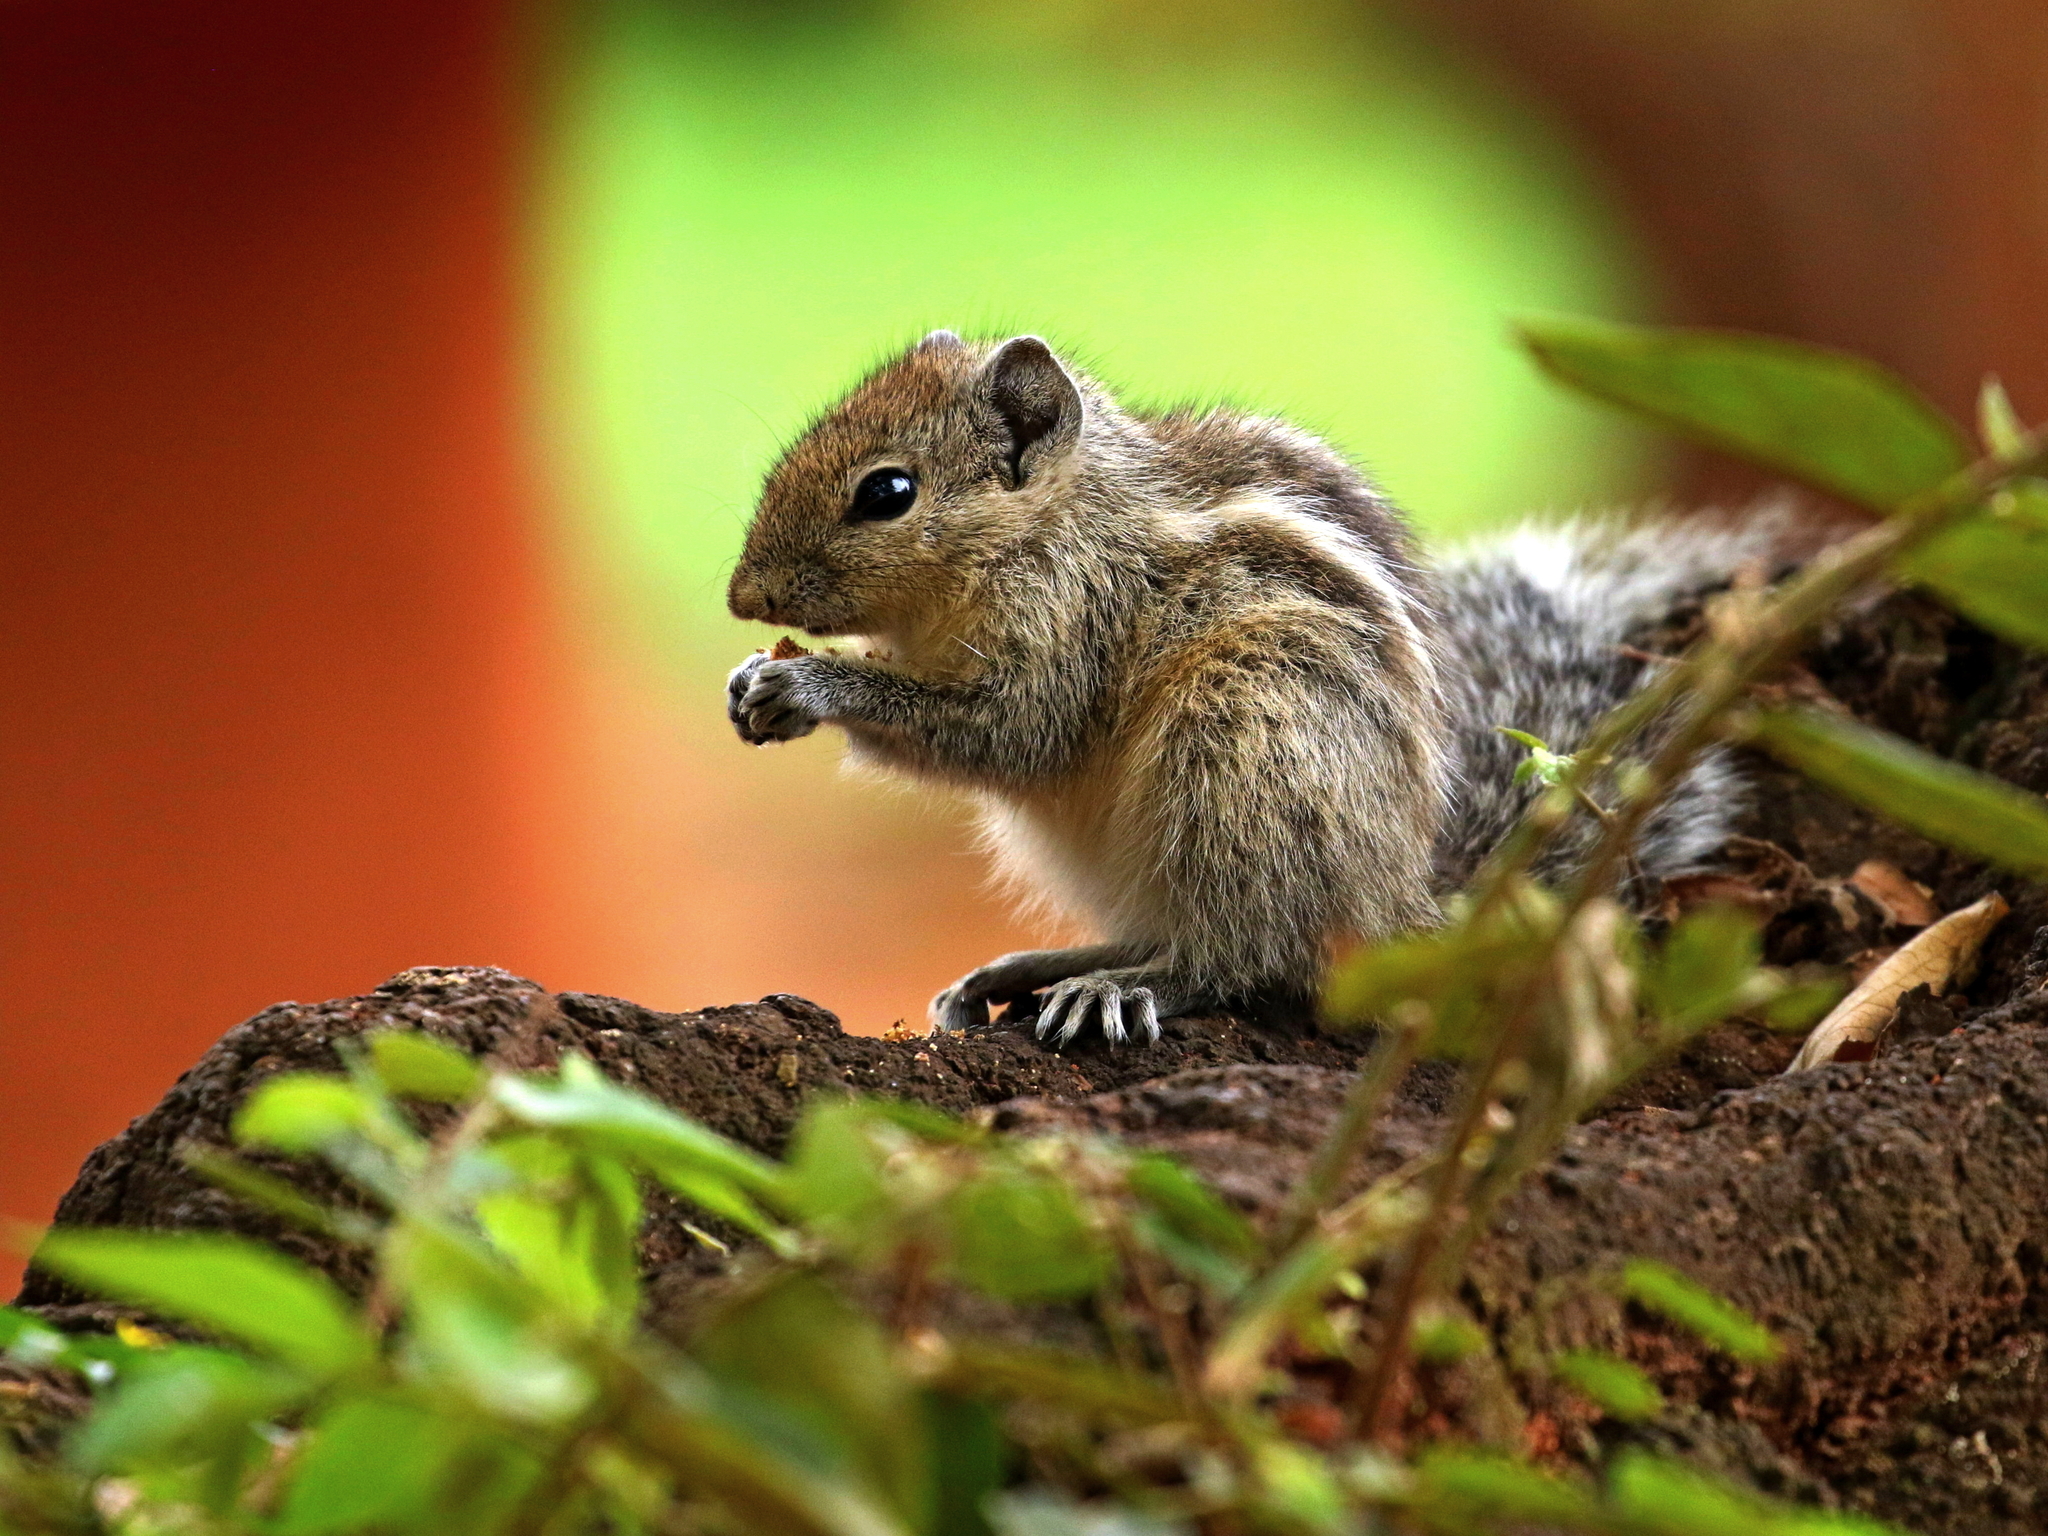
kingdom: Animalia
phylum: Chordata
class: Mammalia
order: Rodentia
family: Sciuridae
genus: Funambulus
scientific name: Funambulus palmarum
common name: Indian palm squirrel
